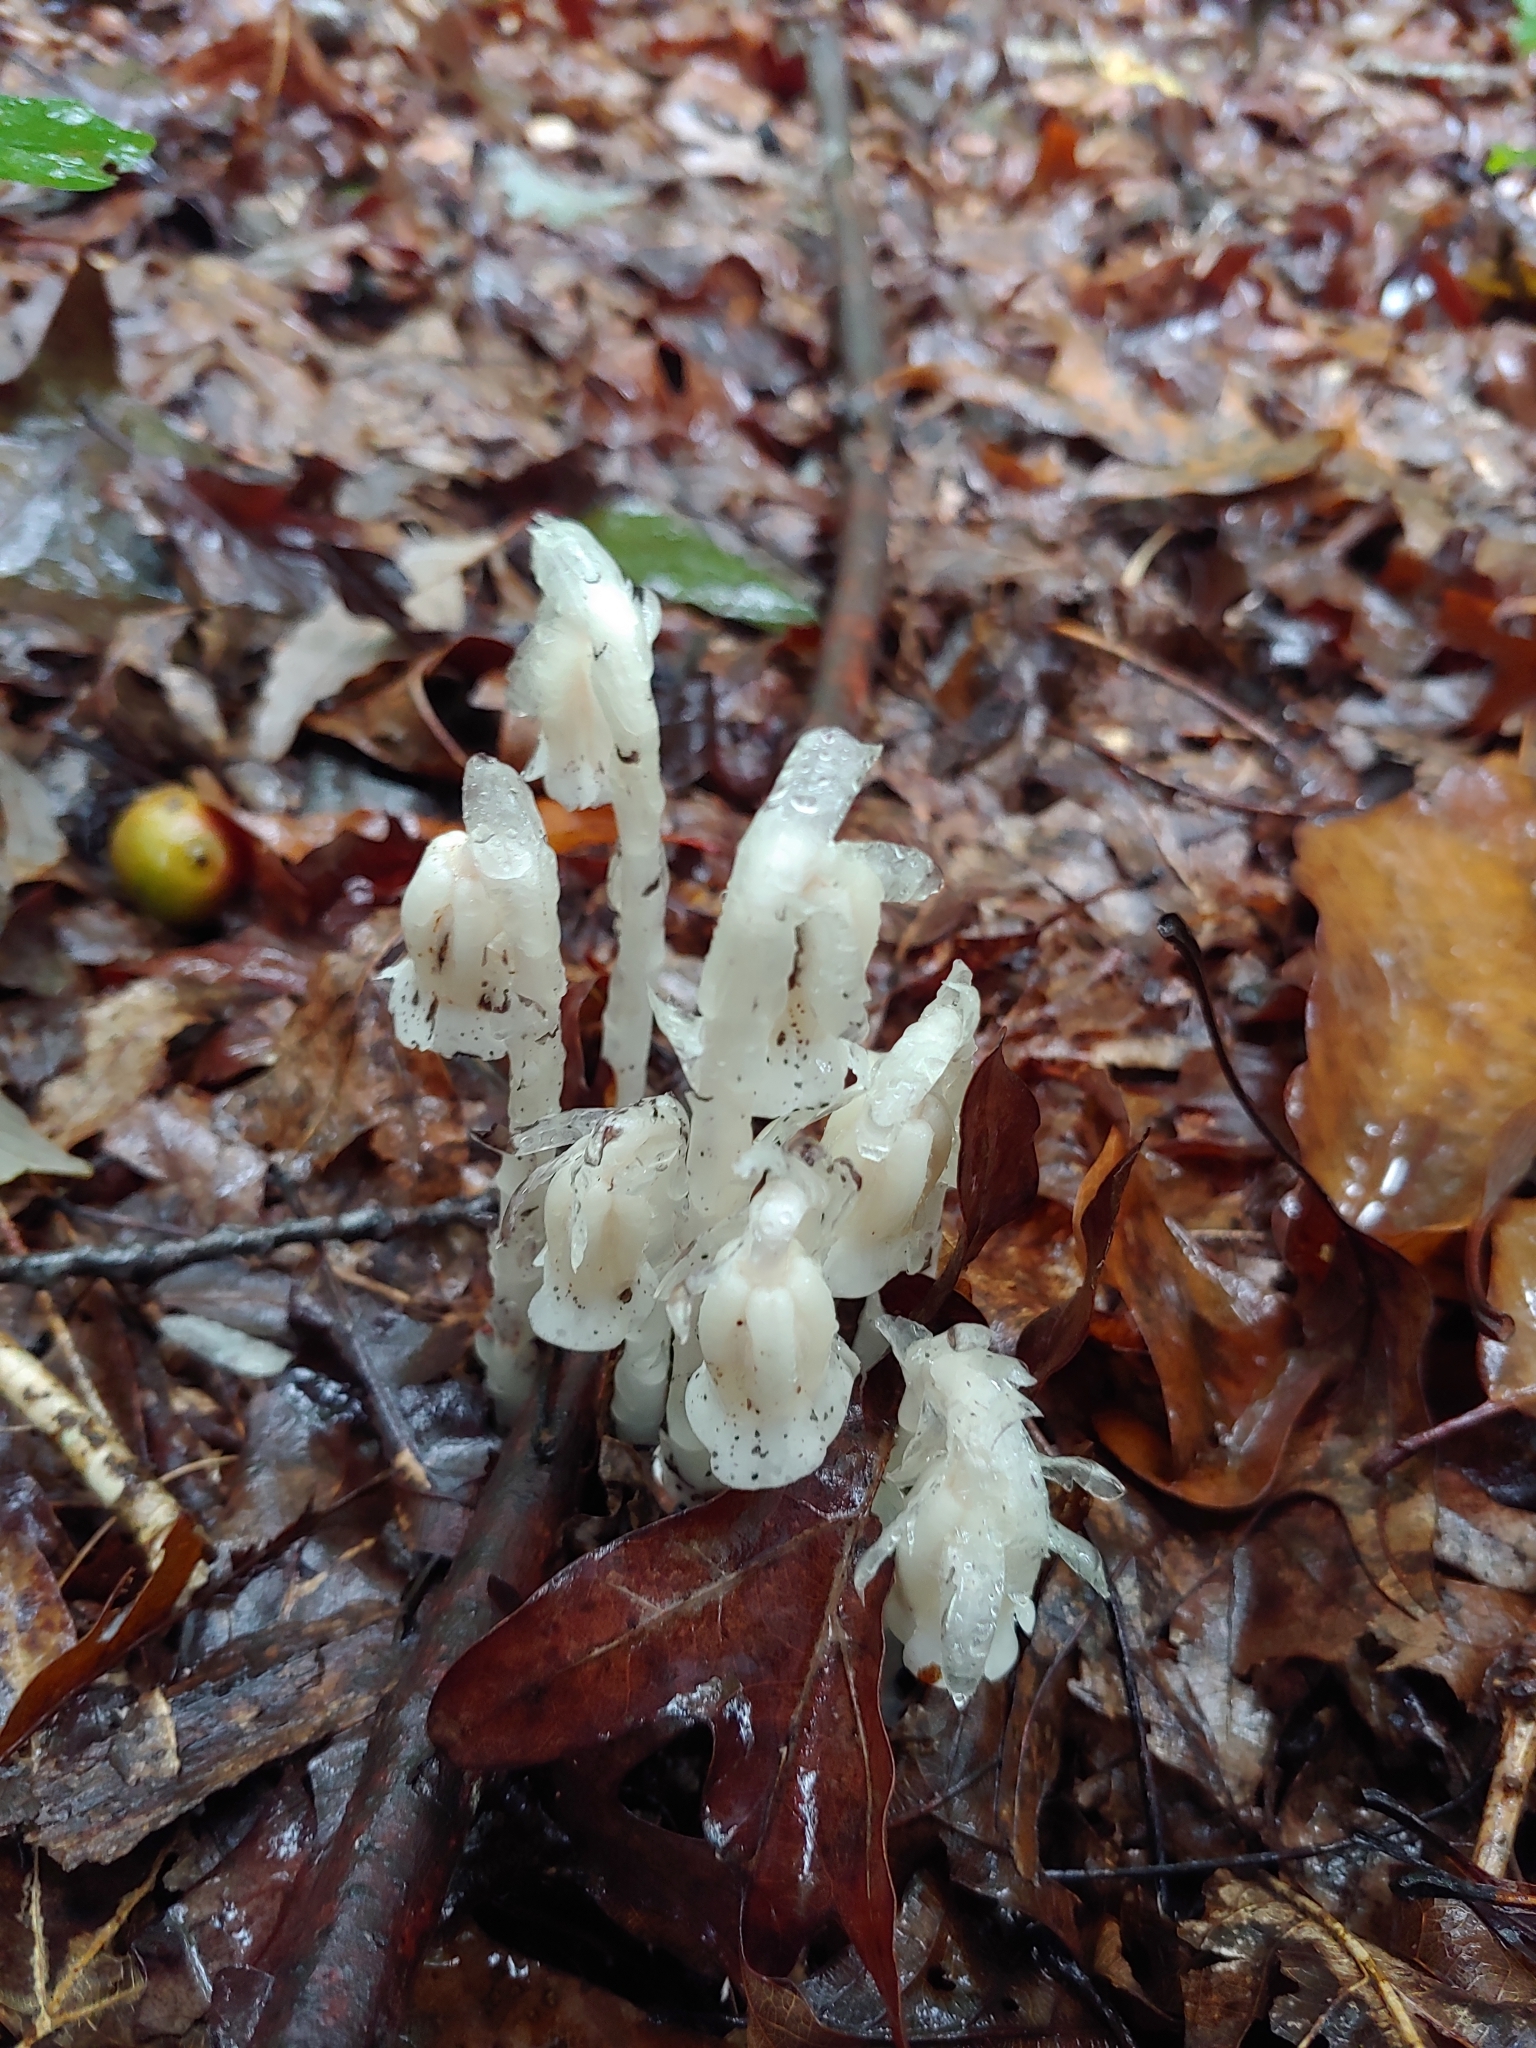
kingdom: Plantae
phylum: Tracheophyta
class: Magnoliopsida
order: Ericales
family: Ericaceae
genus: Monotropa
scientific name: Monotropa uniflora
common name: Convulsion root
